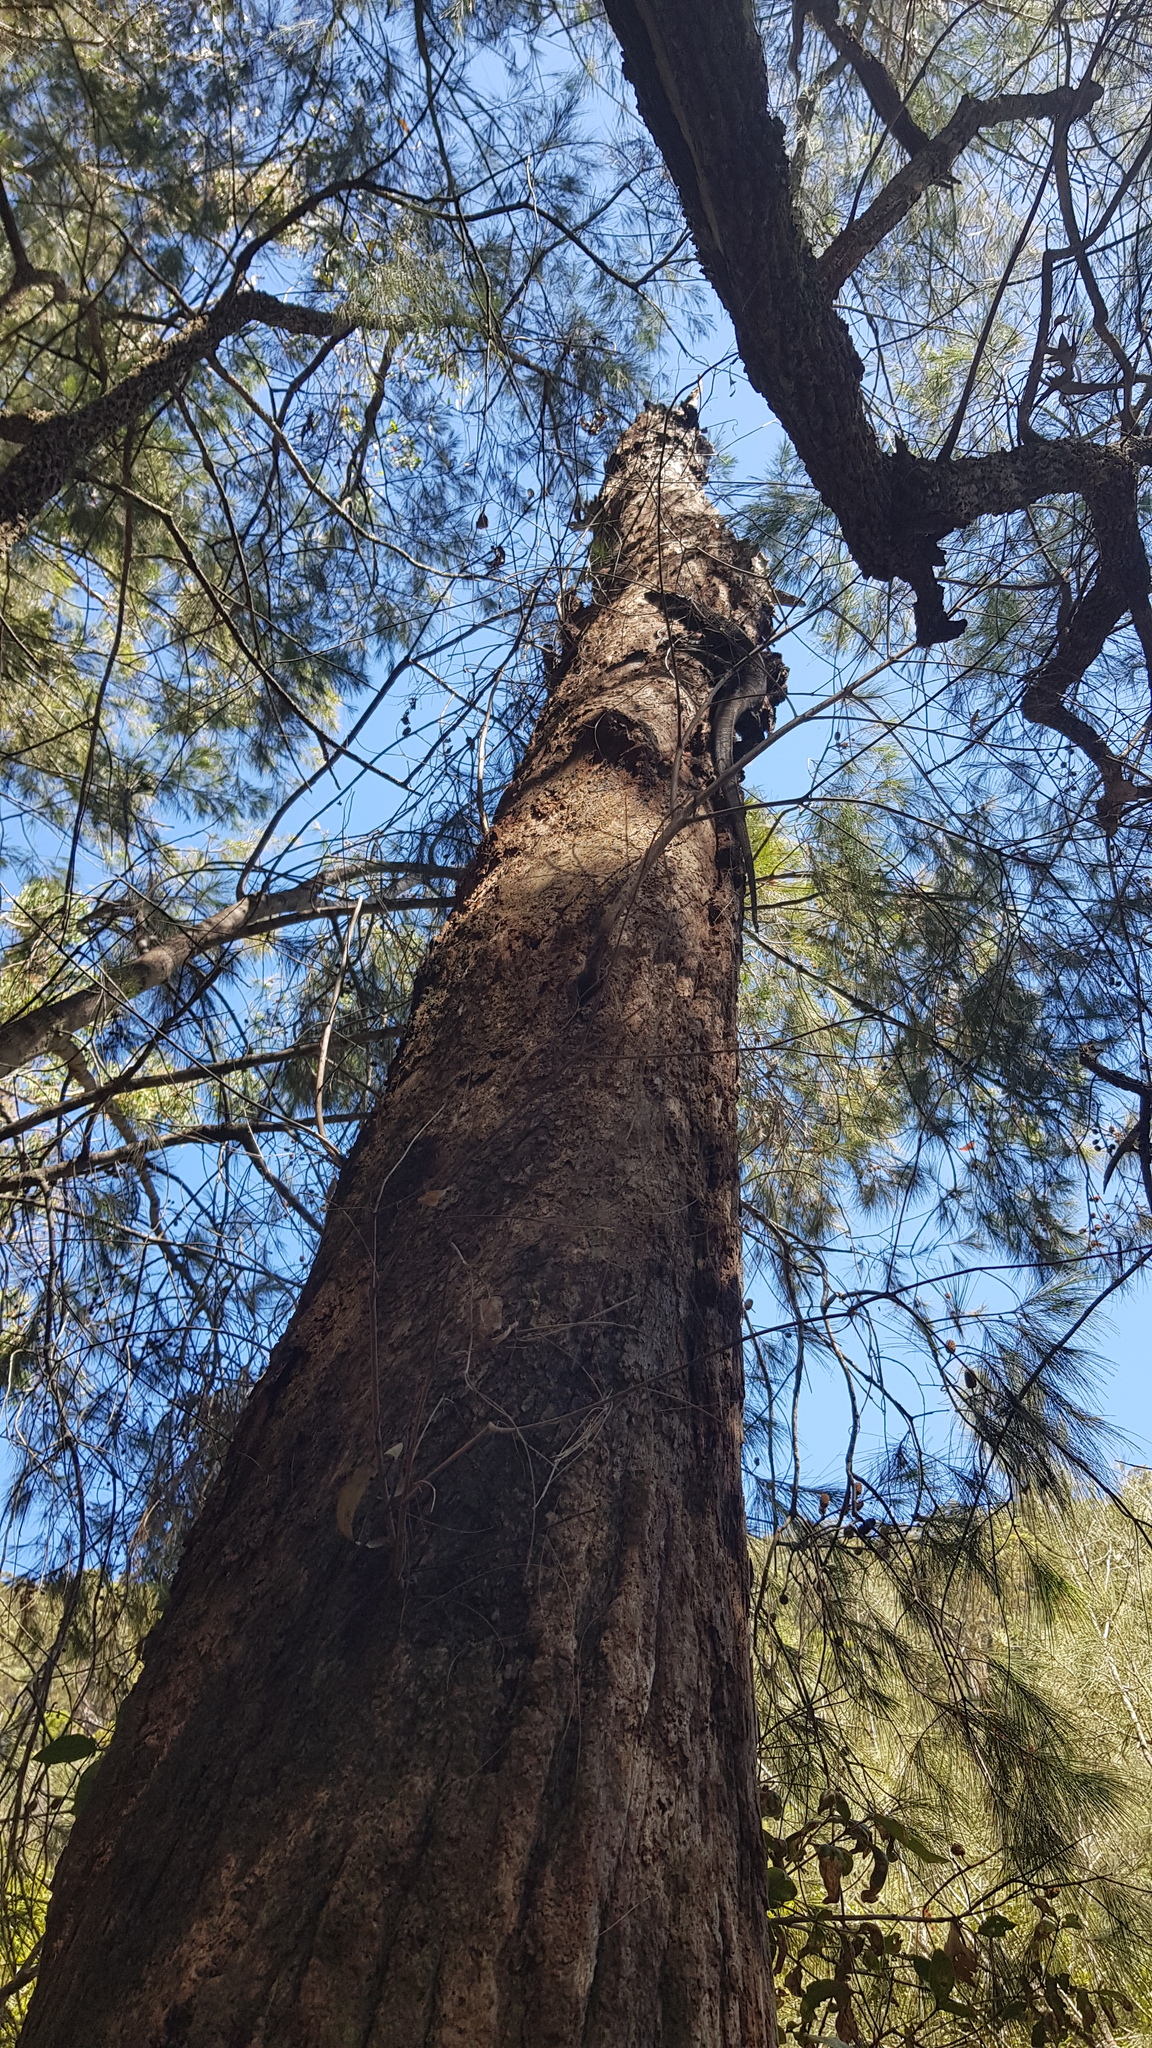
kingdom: Animalia
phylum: Chordata
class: Squamata
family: Varanidae
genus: Varanus
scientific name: Varanus varius
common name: Lace monitor
